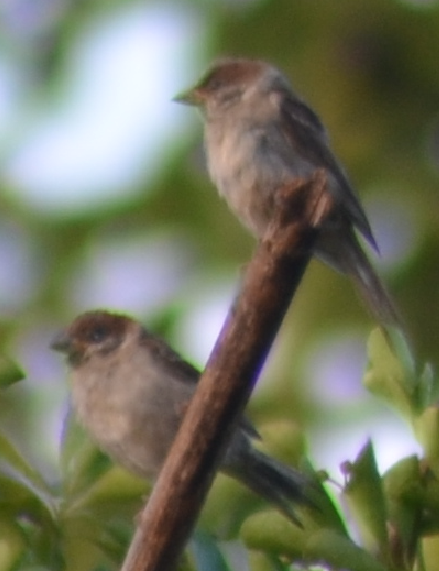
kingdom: Animalia
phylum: Chordata
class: Aves
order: Passeriformes
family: Passeridae
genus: Passer
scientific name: Passer montanus
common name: Eurasian tree sparrow
